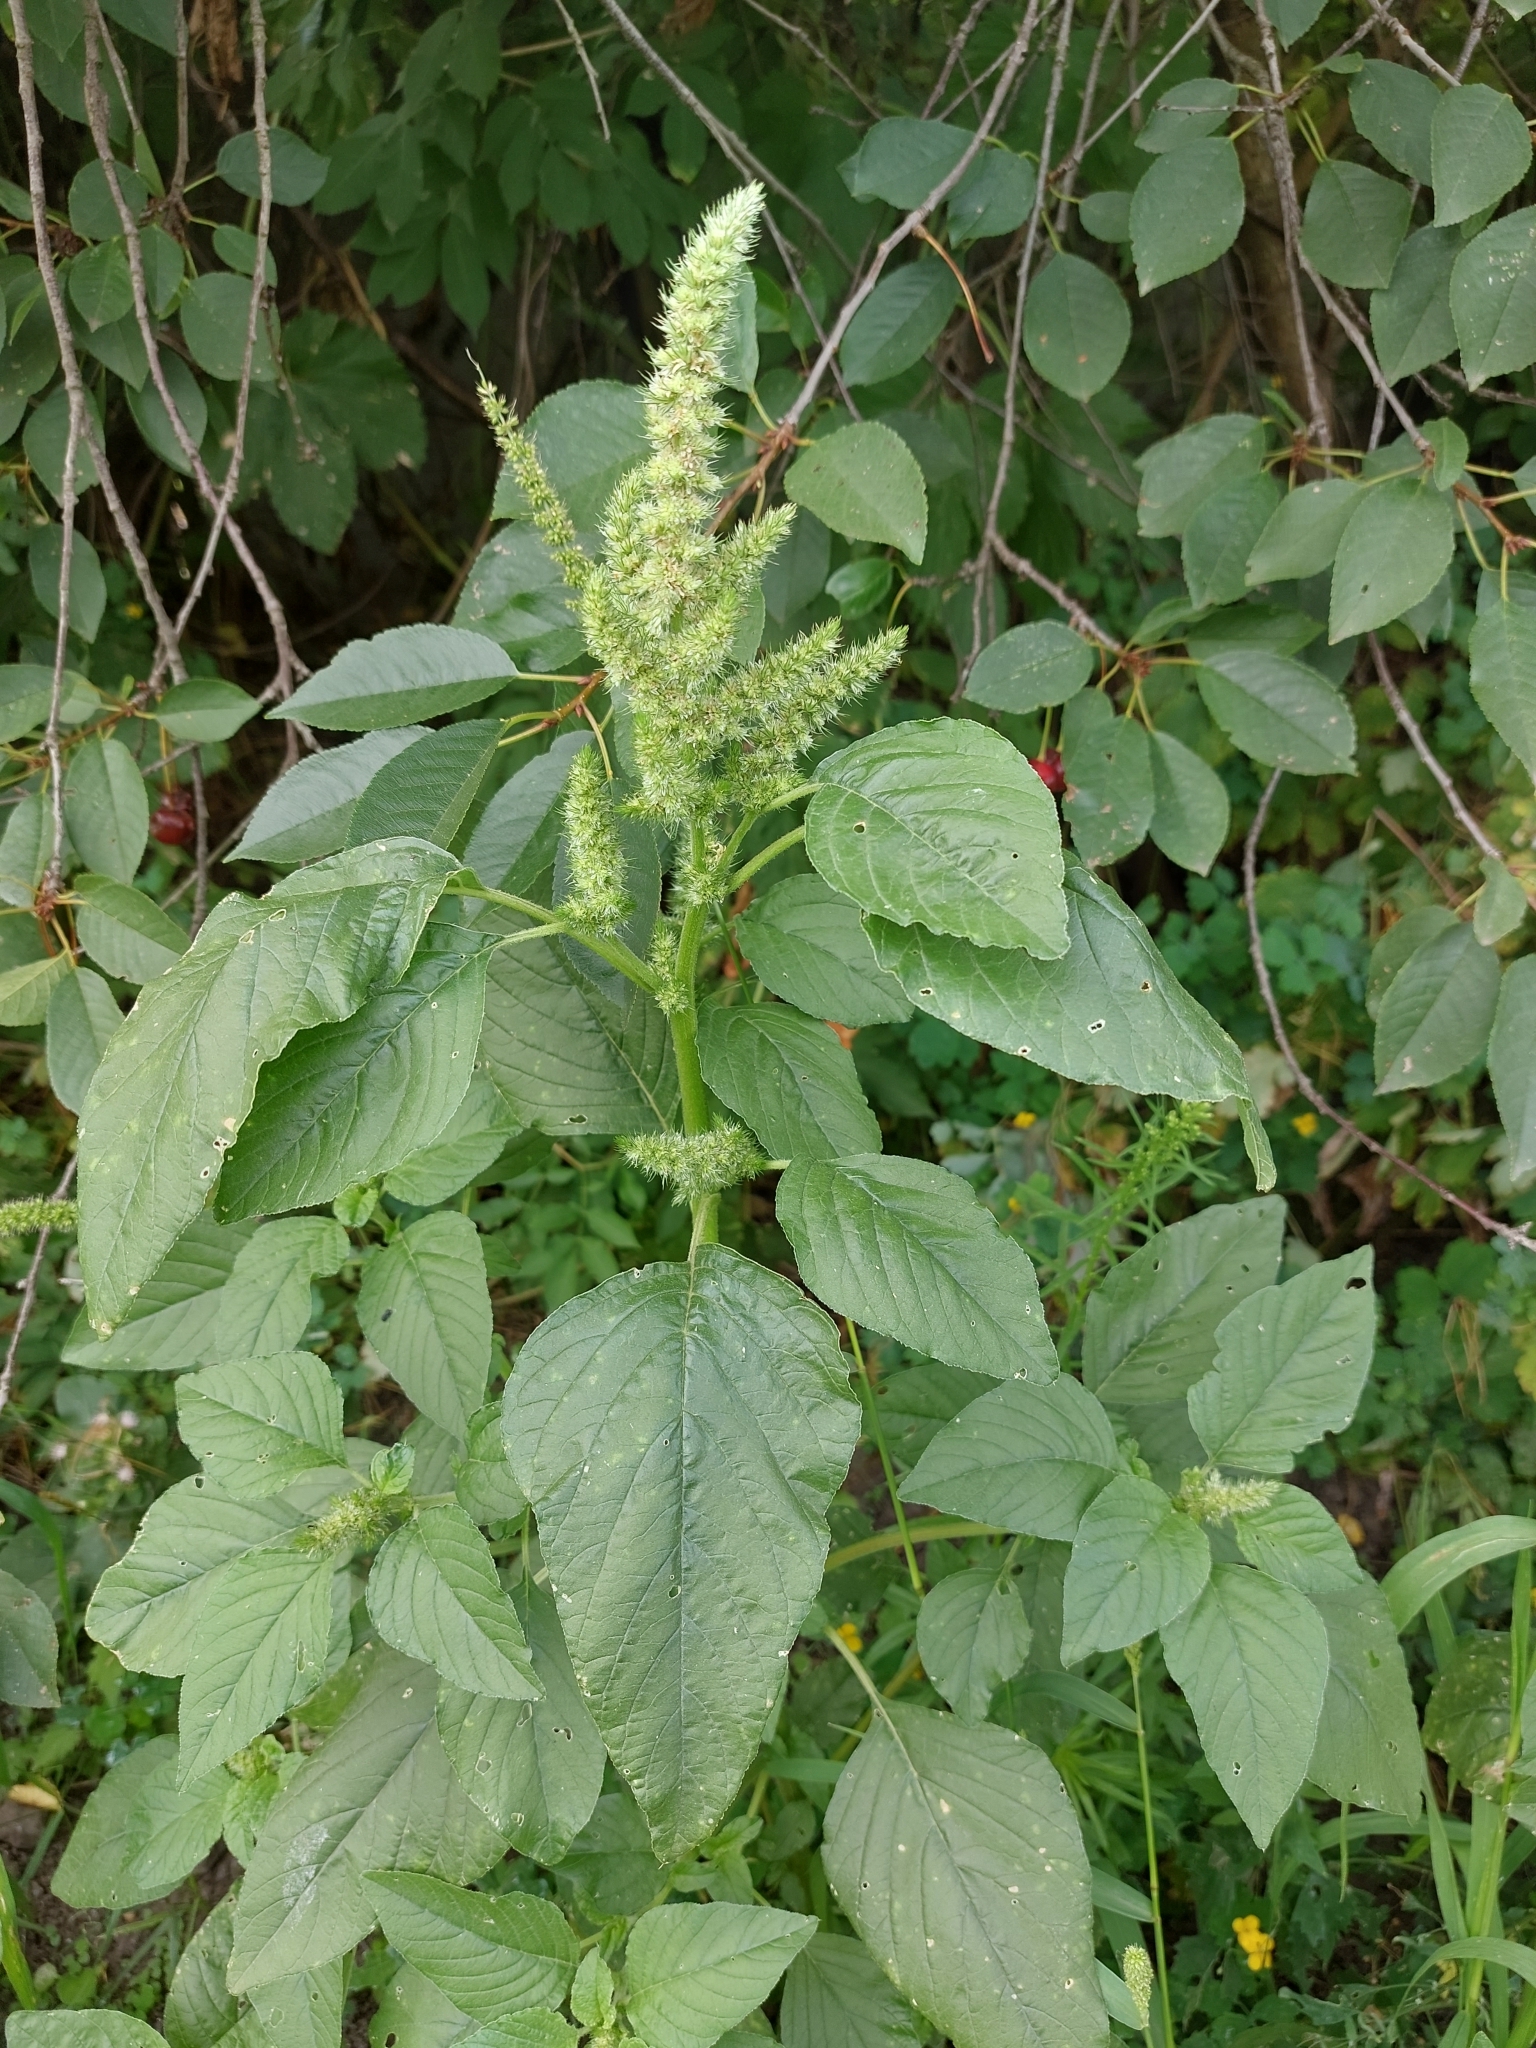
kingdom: Plantae
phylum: Tracheophyta
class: Magnoliopsida
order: Caryophyllales
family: Amaranthaceae
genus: Amaranthus
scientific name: Amaranthus retroflexus
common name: Redroot amaranth
